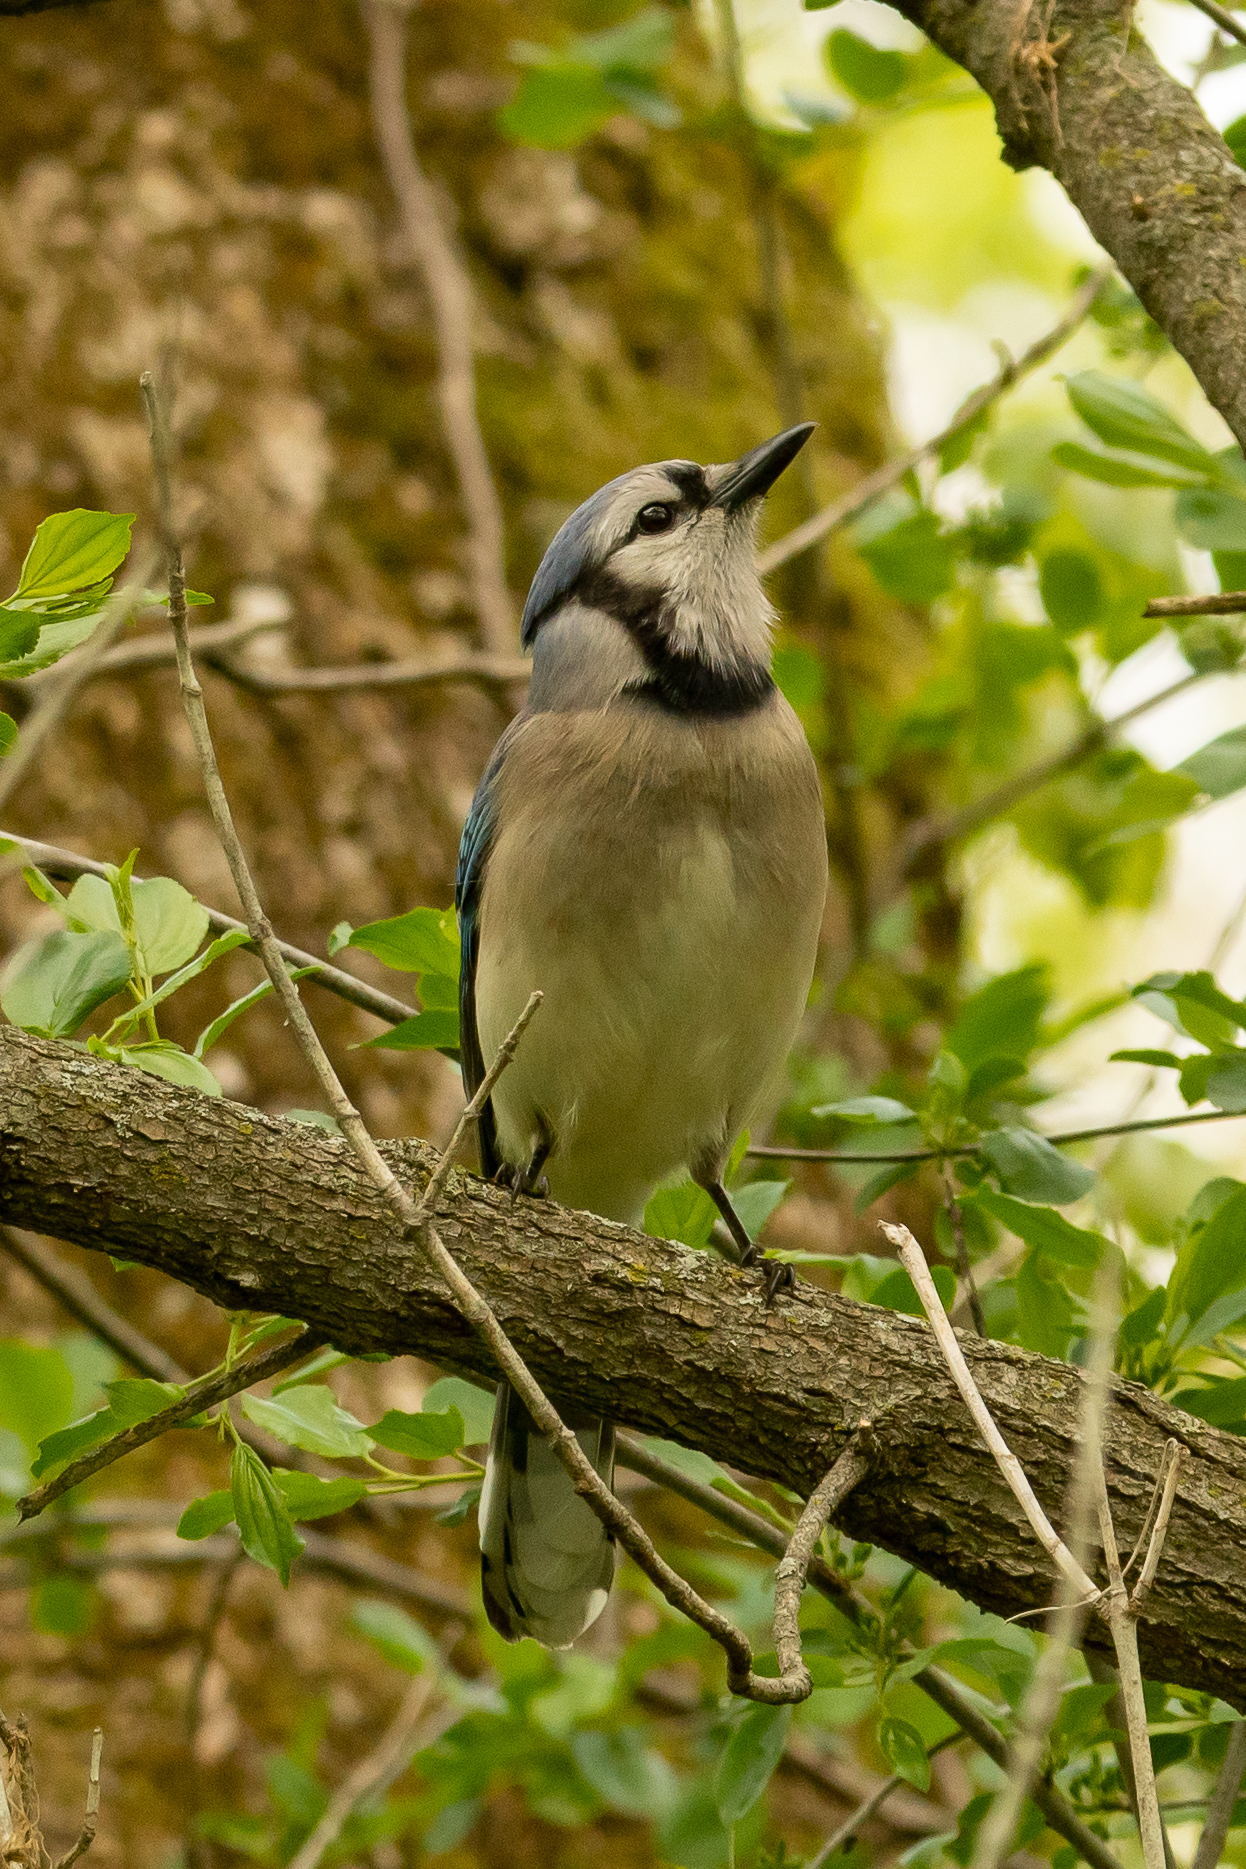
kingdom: Animalia
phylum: Chordata
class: Aves
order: Passeriformes
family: Corvidae
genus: Cyanocitta
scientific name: Cyanocitta cristata
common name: Blue jay
